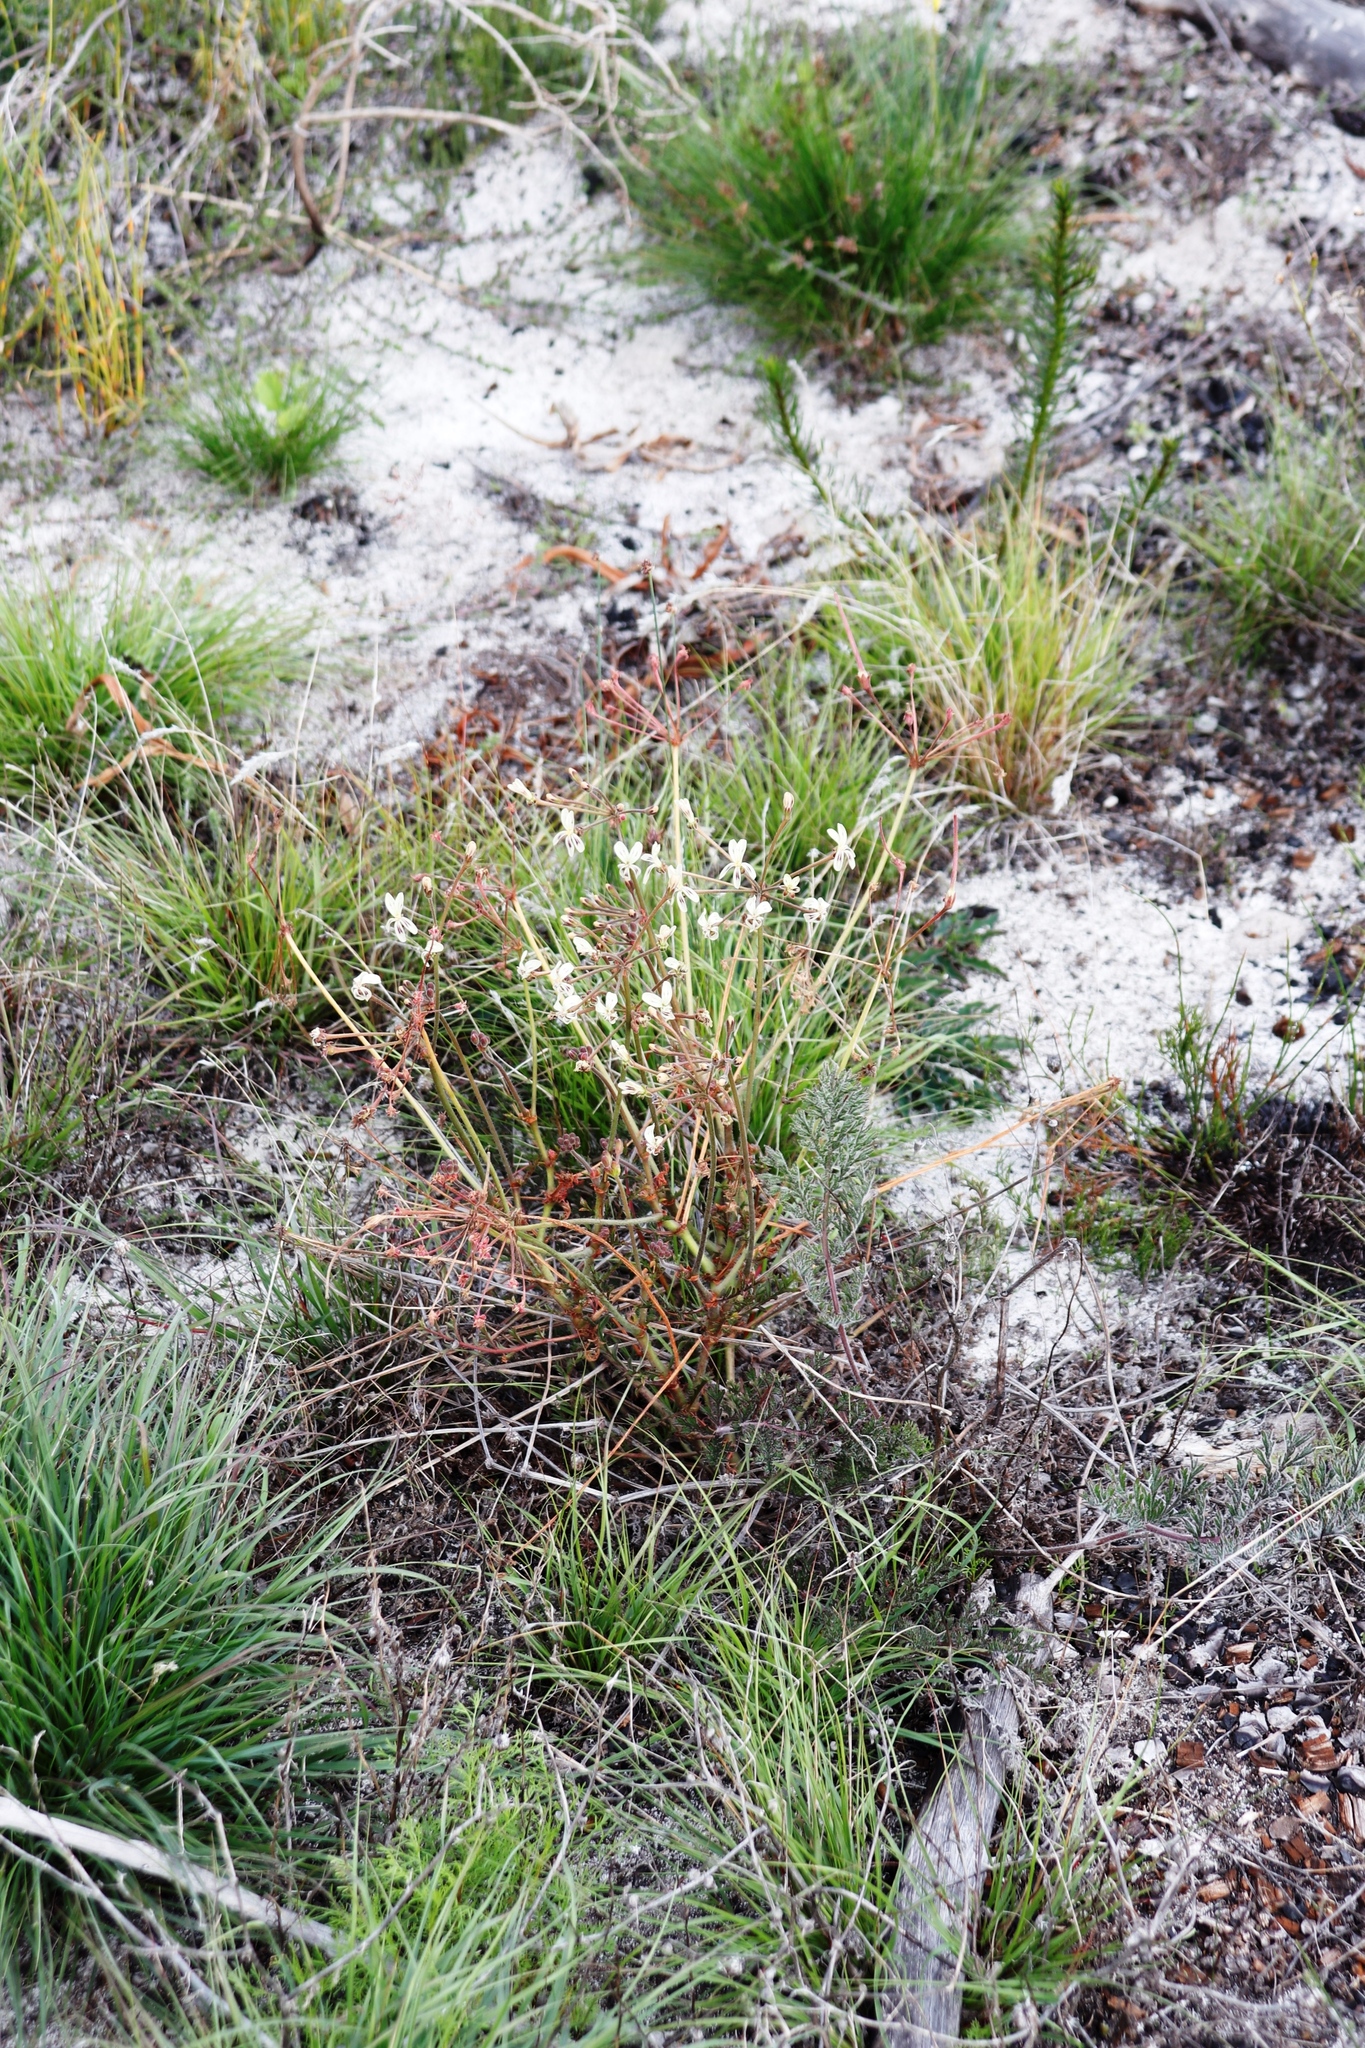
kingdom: Plantae
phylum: Tracheophyta
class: Magnoliopsida
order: Geraniales
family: Geraniaceae
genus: Pelargonium
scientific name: Pelargonium triste
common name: Night-scent pelargonium
